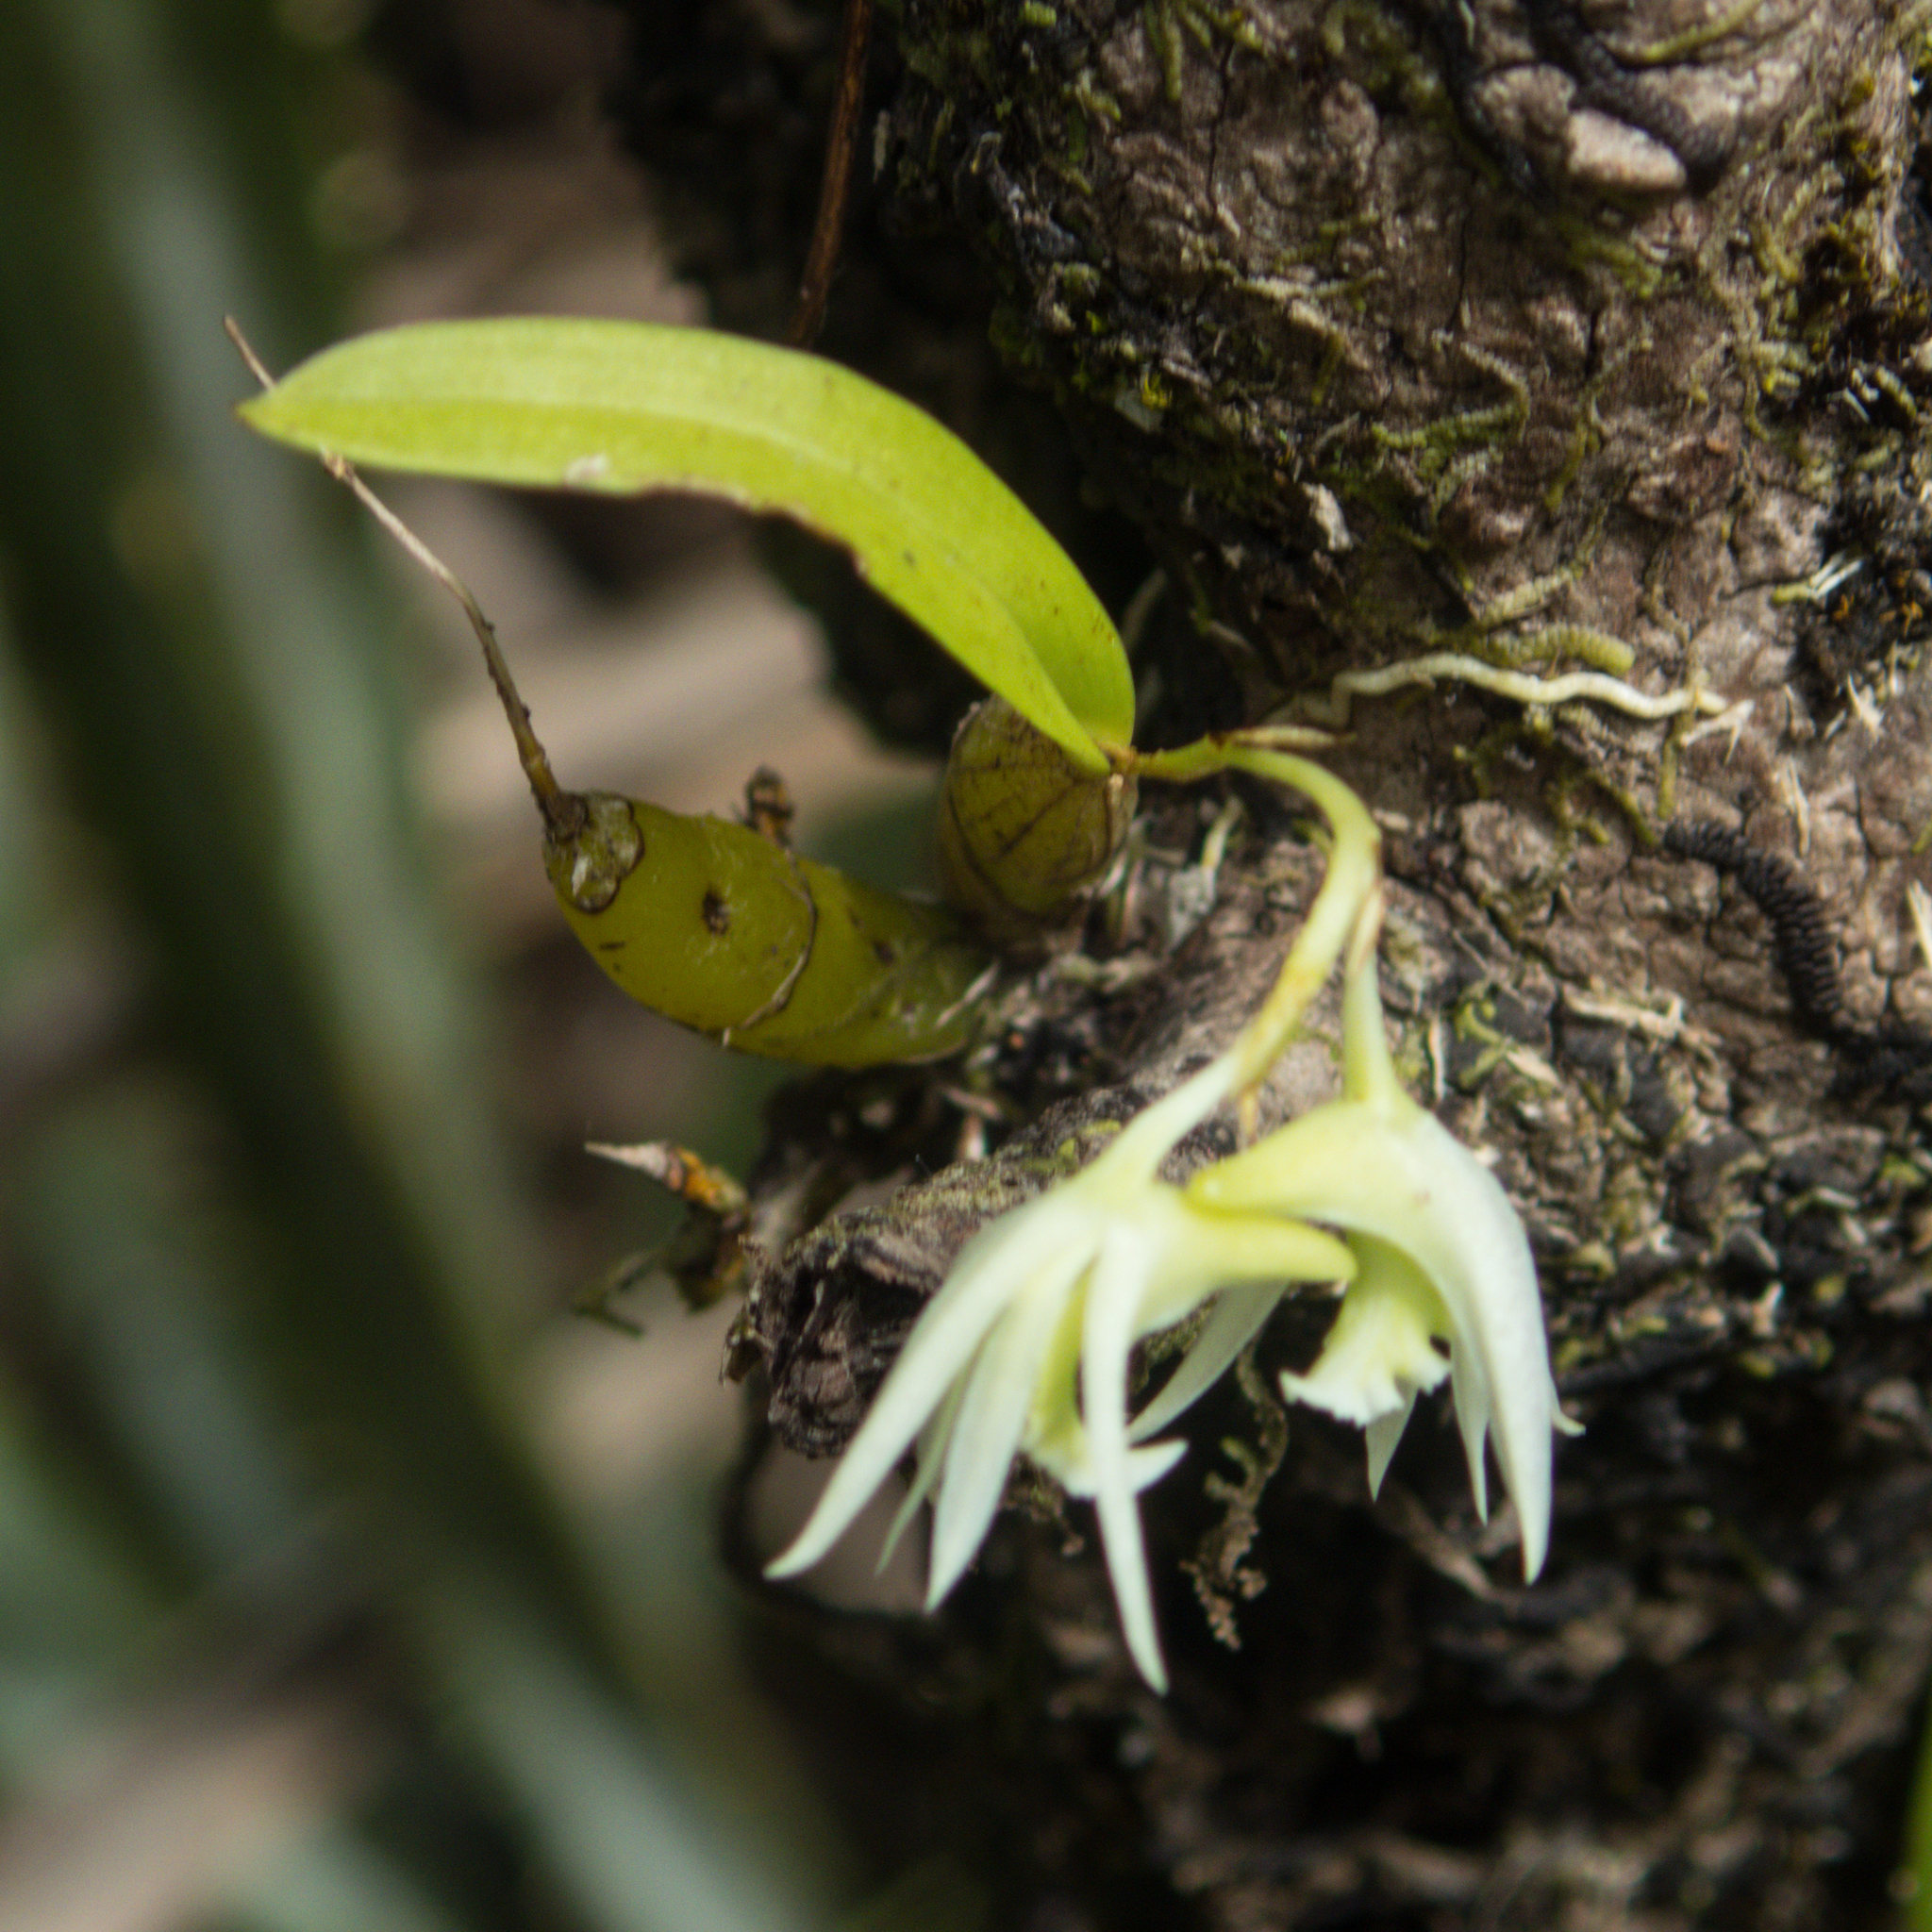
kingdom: Plantae
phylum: Tracheophyta
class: Liliopsida
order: Asparagales
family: Orchidaceae
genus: Dendrobium
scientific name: Dendrobium kratense
